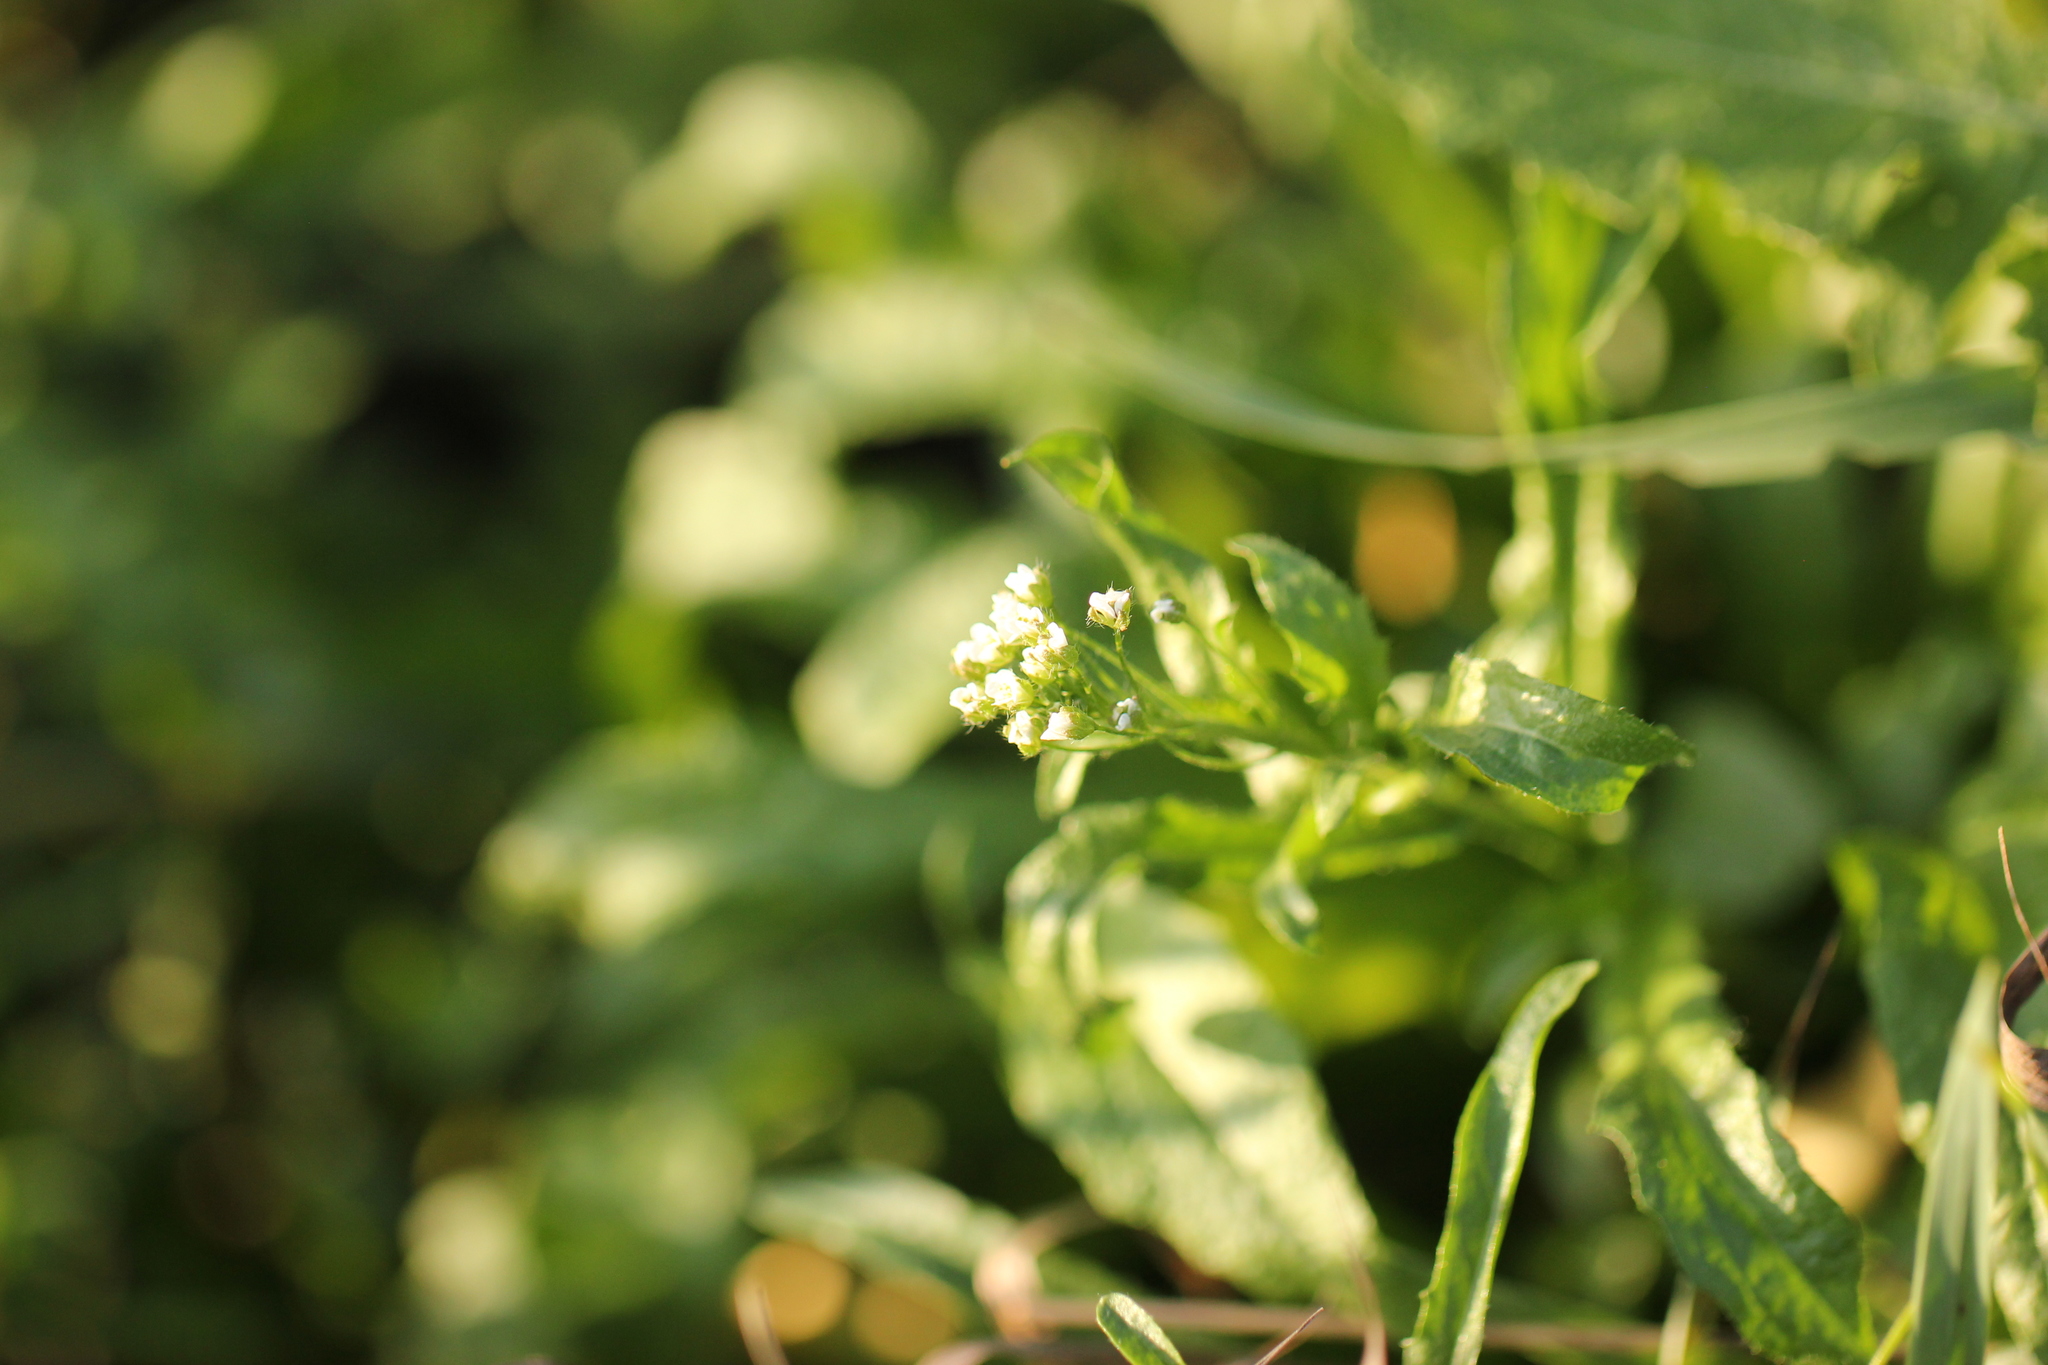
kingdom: Plantae
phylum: Tracheophyta
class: Magnoliopsida
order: Brassicales
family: Brassicaceae
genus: Capsella
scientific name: Capsella bursa-pastoris
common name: Shepherd's purse
